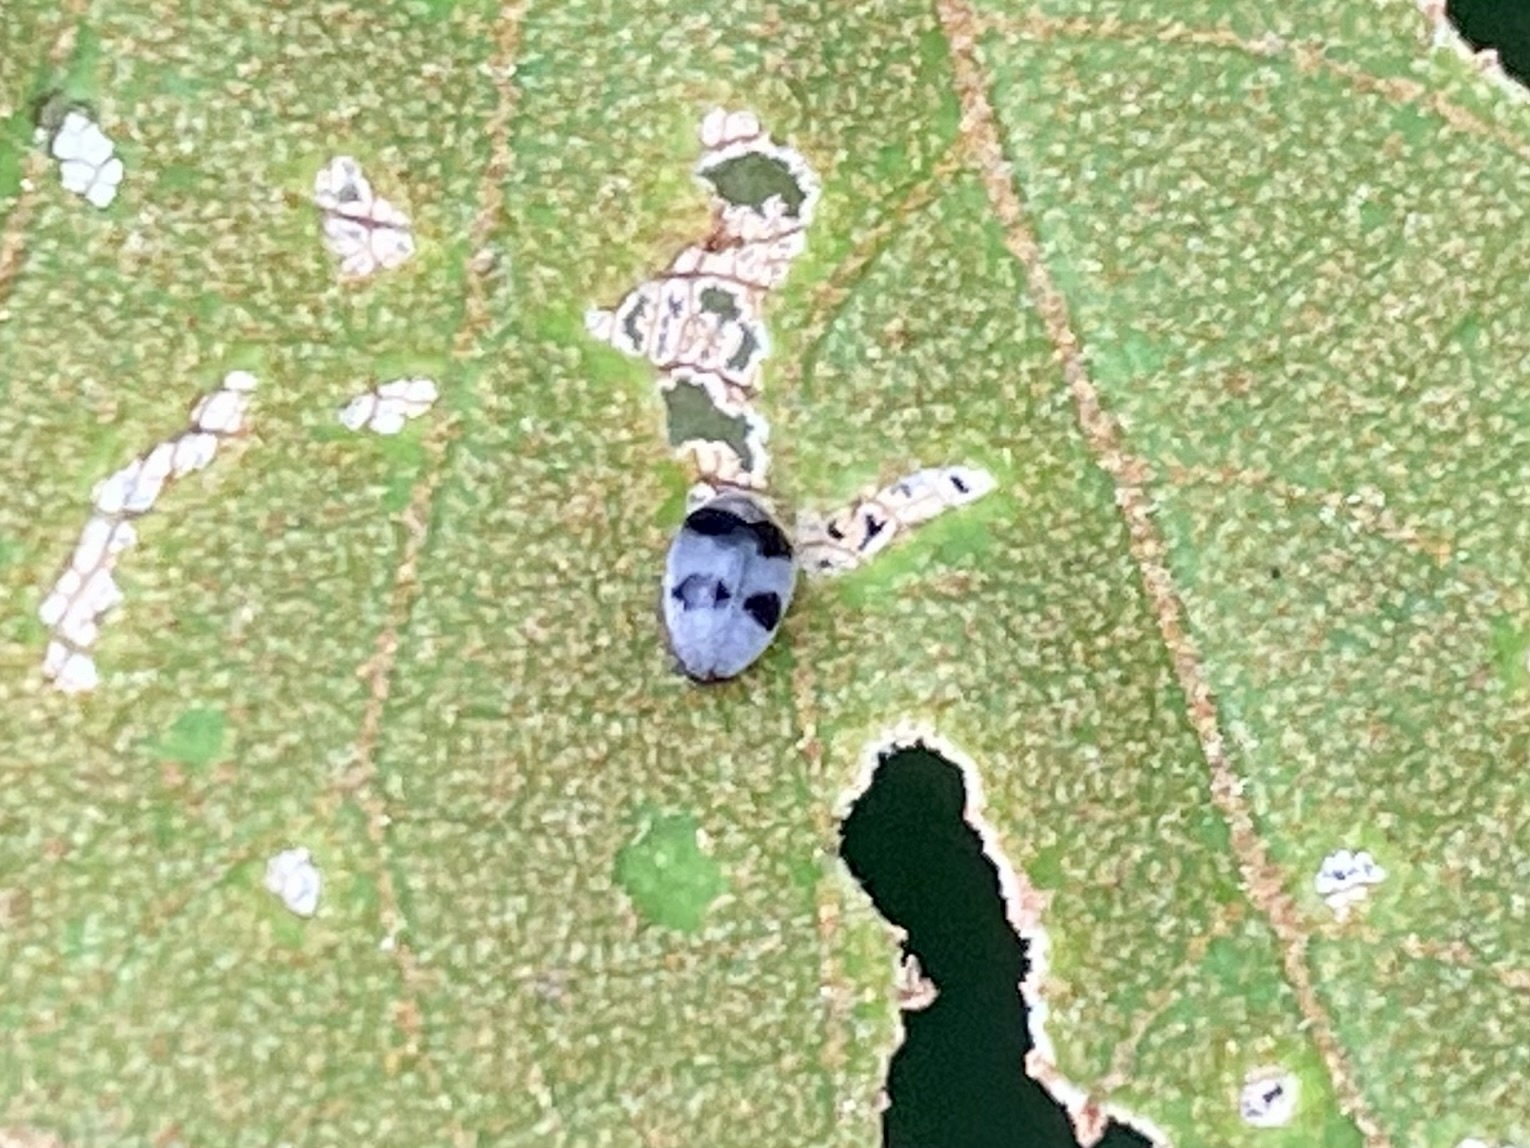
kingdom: Animalia
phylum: Arthropoda
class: Insecta
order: Coleoptera
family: Dermestidae
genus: Orphinus
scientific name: Orphinus
